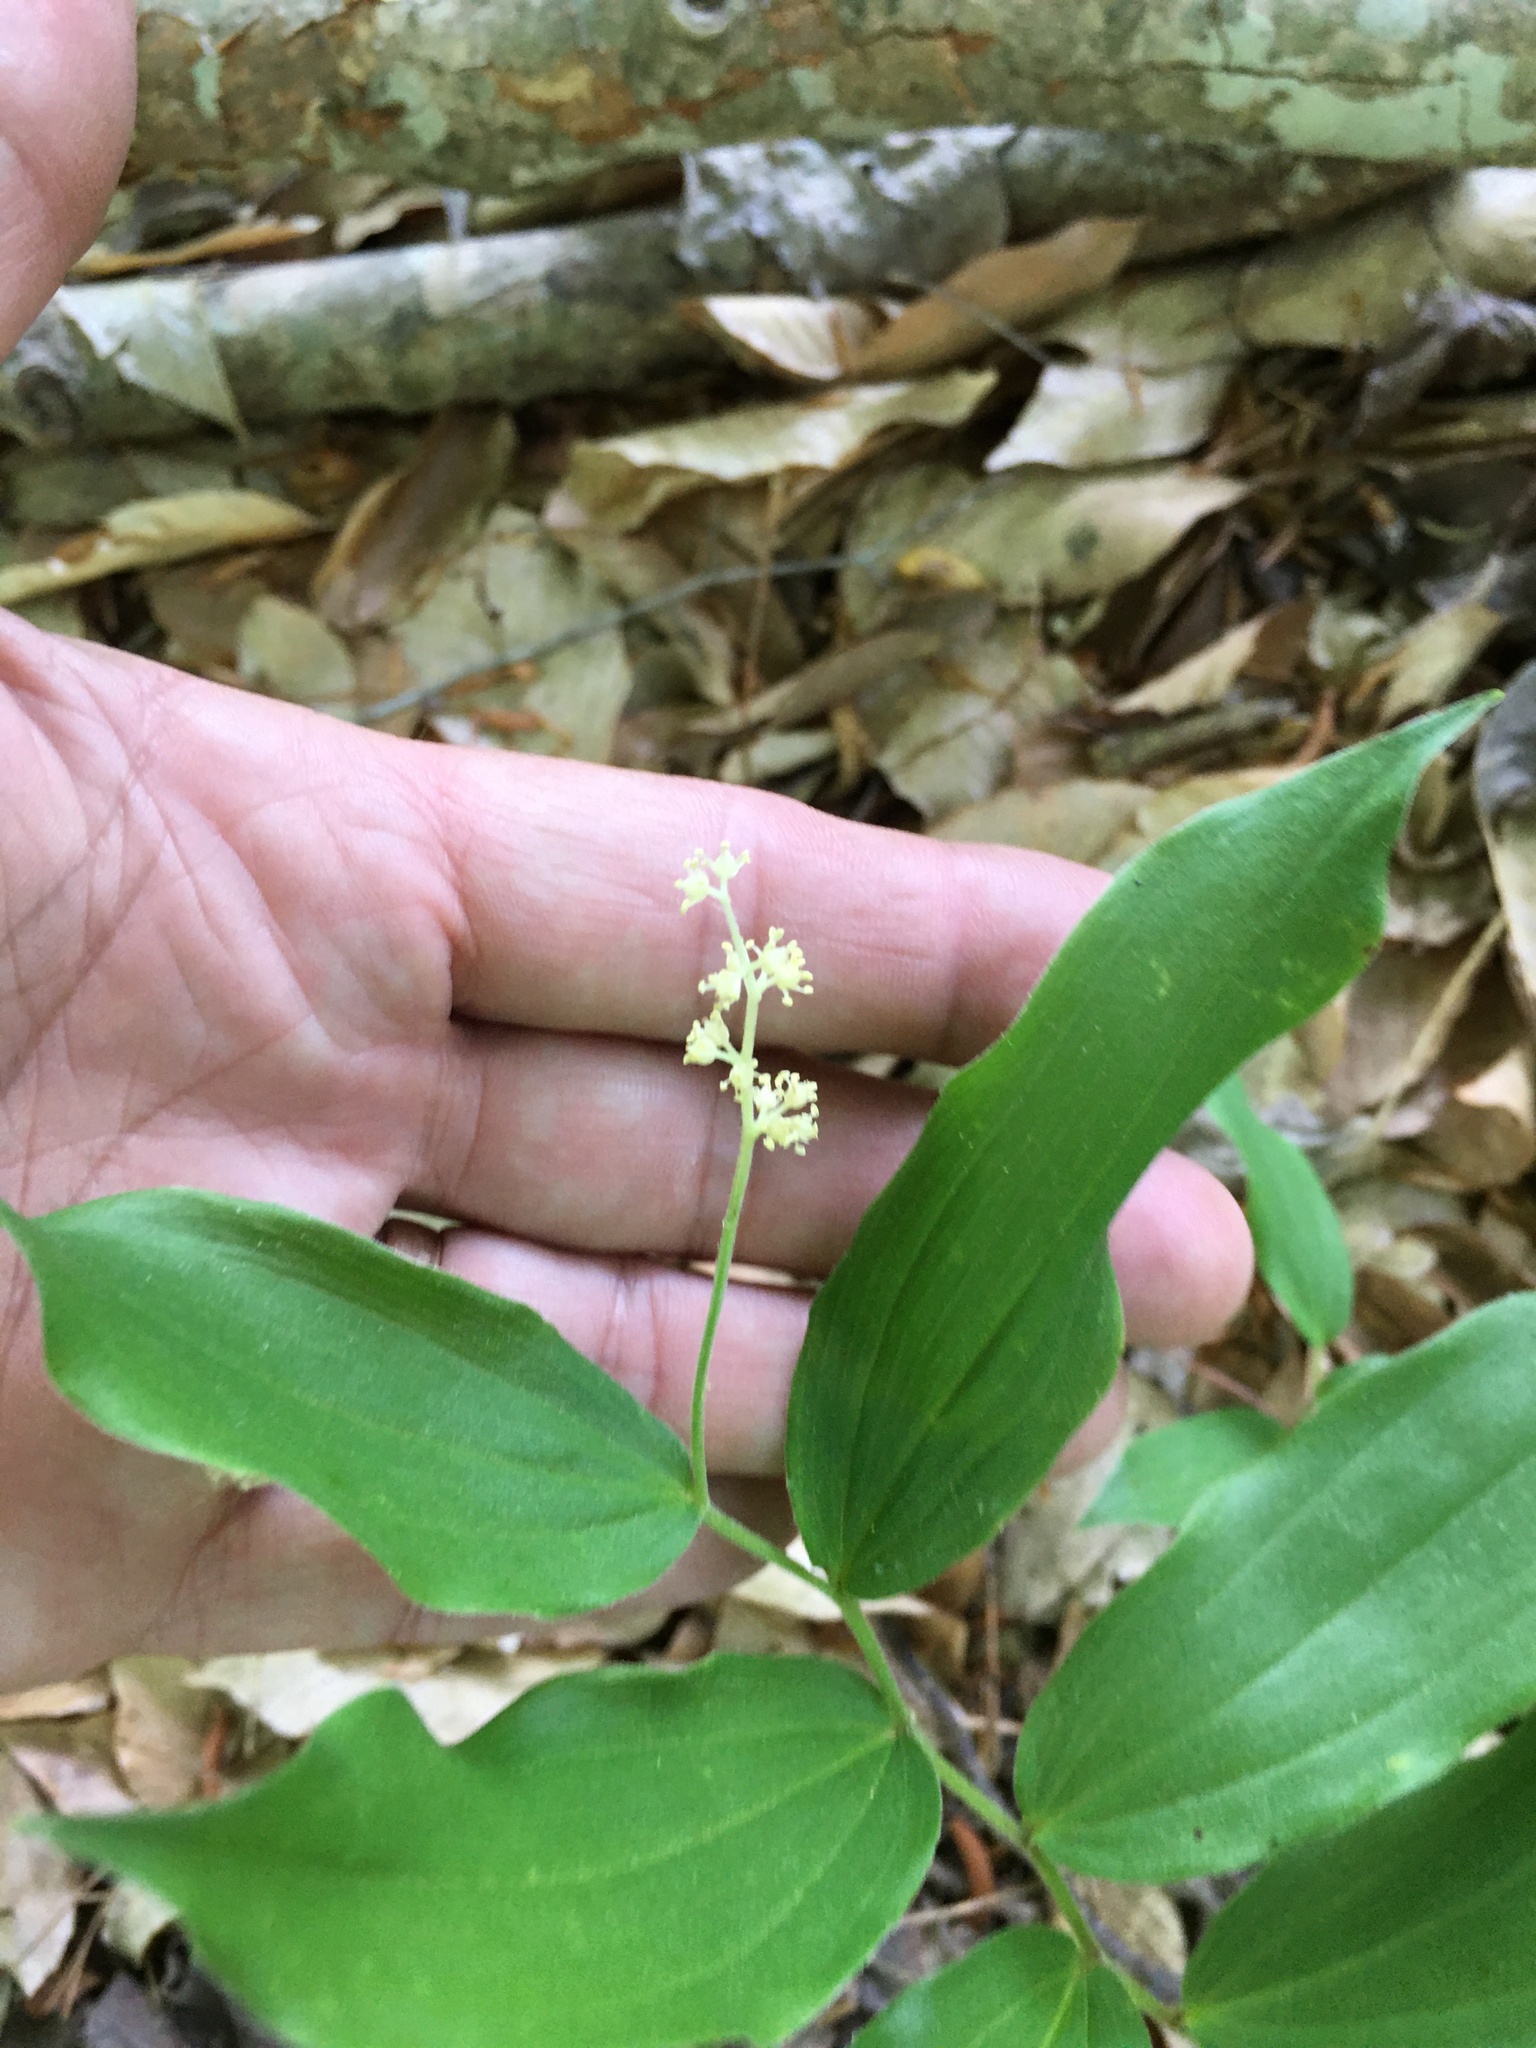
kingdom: Plantae
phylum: Tracheophyta
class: Liliopsida
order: Asparagales
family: Asparagaceae
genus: Maianthemum
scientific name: Maianthemum racemosum
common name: False spikenard
